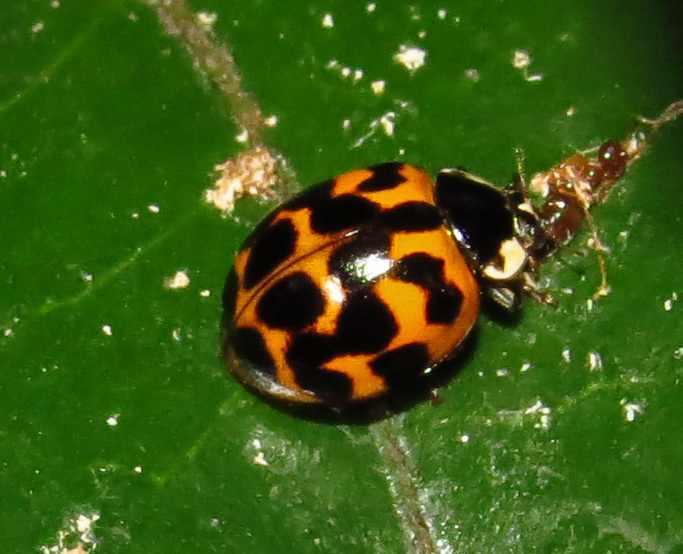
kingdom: Animalia
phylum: Arthropoda
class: Insecta
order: Coleoptera
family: Coccinellidae
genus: Harmonia
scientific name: Harmonia axyridis
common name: Harlequin ladybird
